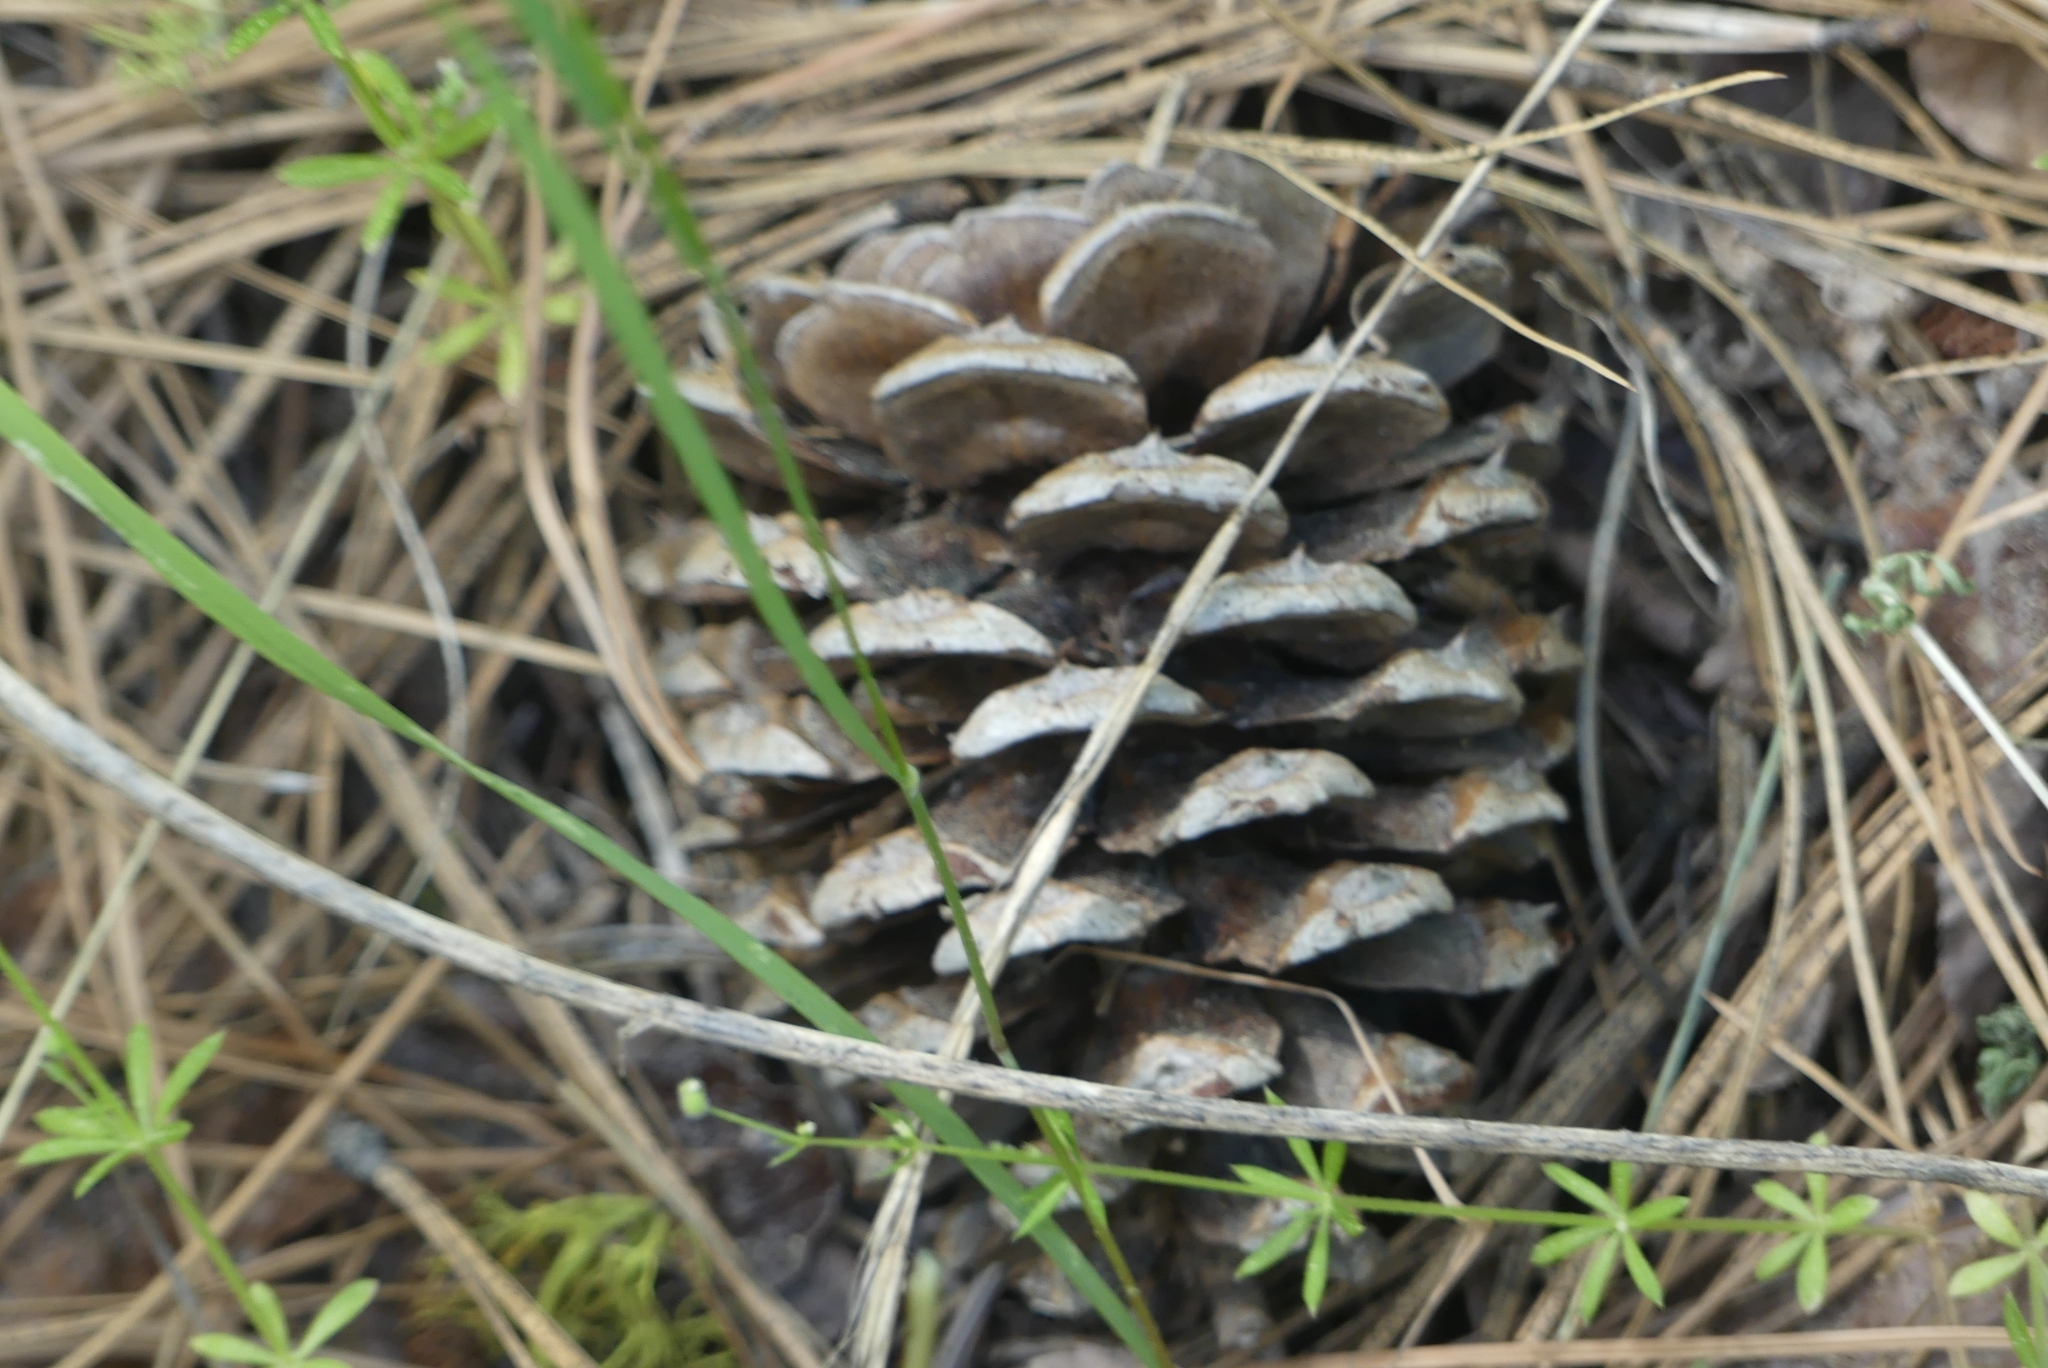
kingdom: Plantae
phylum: Tracheophyta
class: Pinopsida
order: Pinales
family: Pinaceae
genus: Pinus
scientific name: Pinus ponderosa
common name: Western yellow-pine
